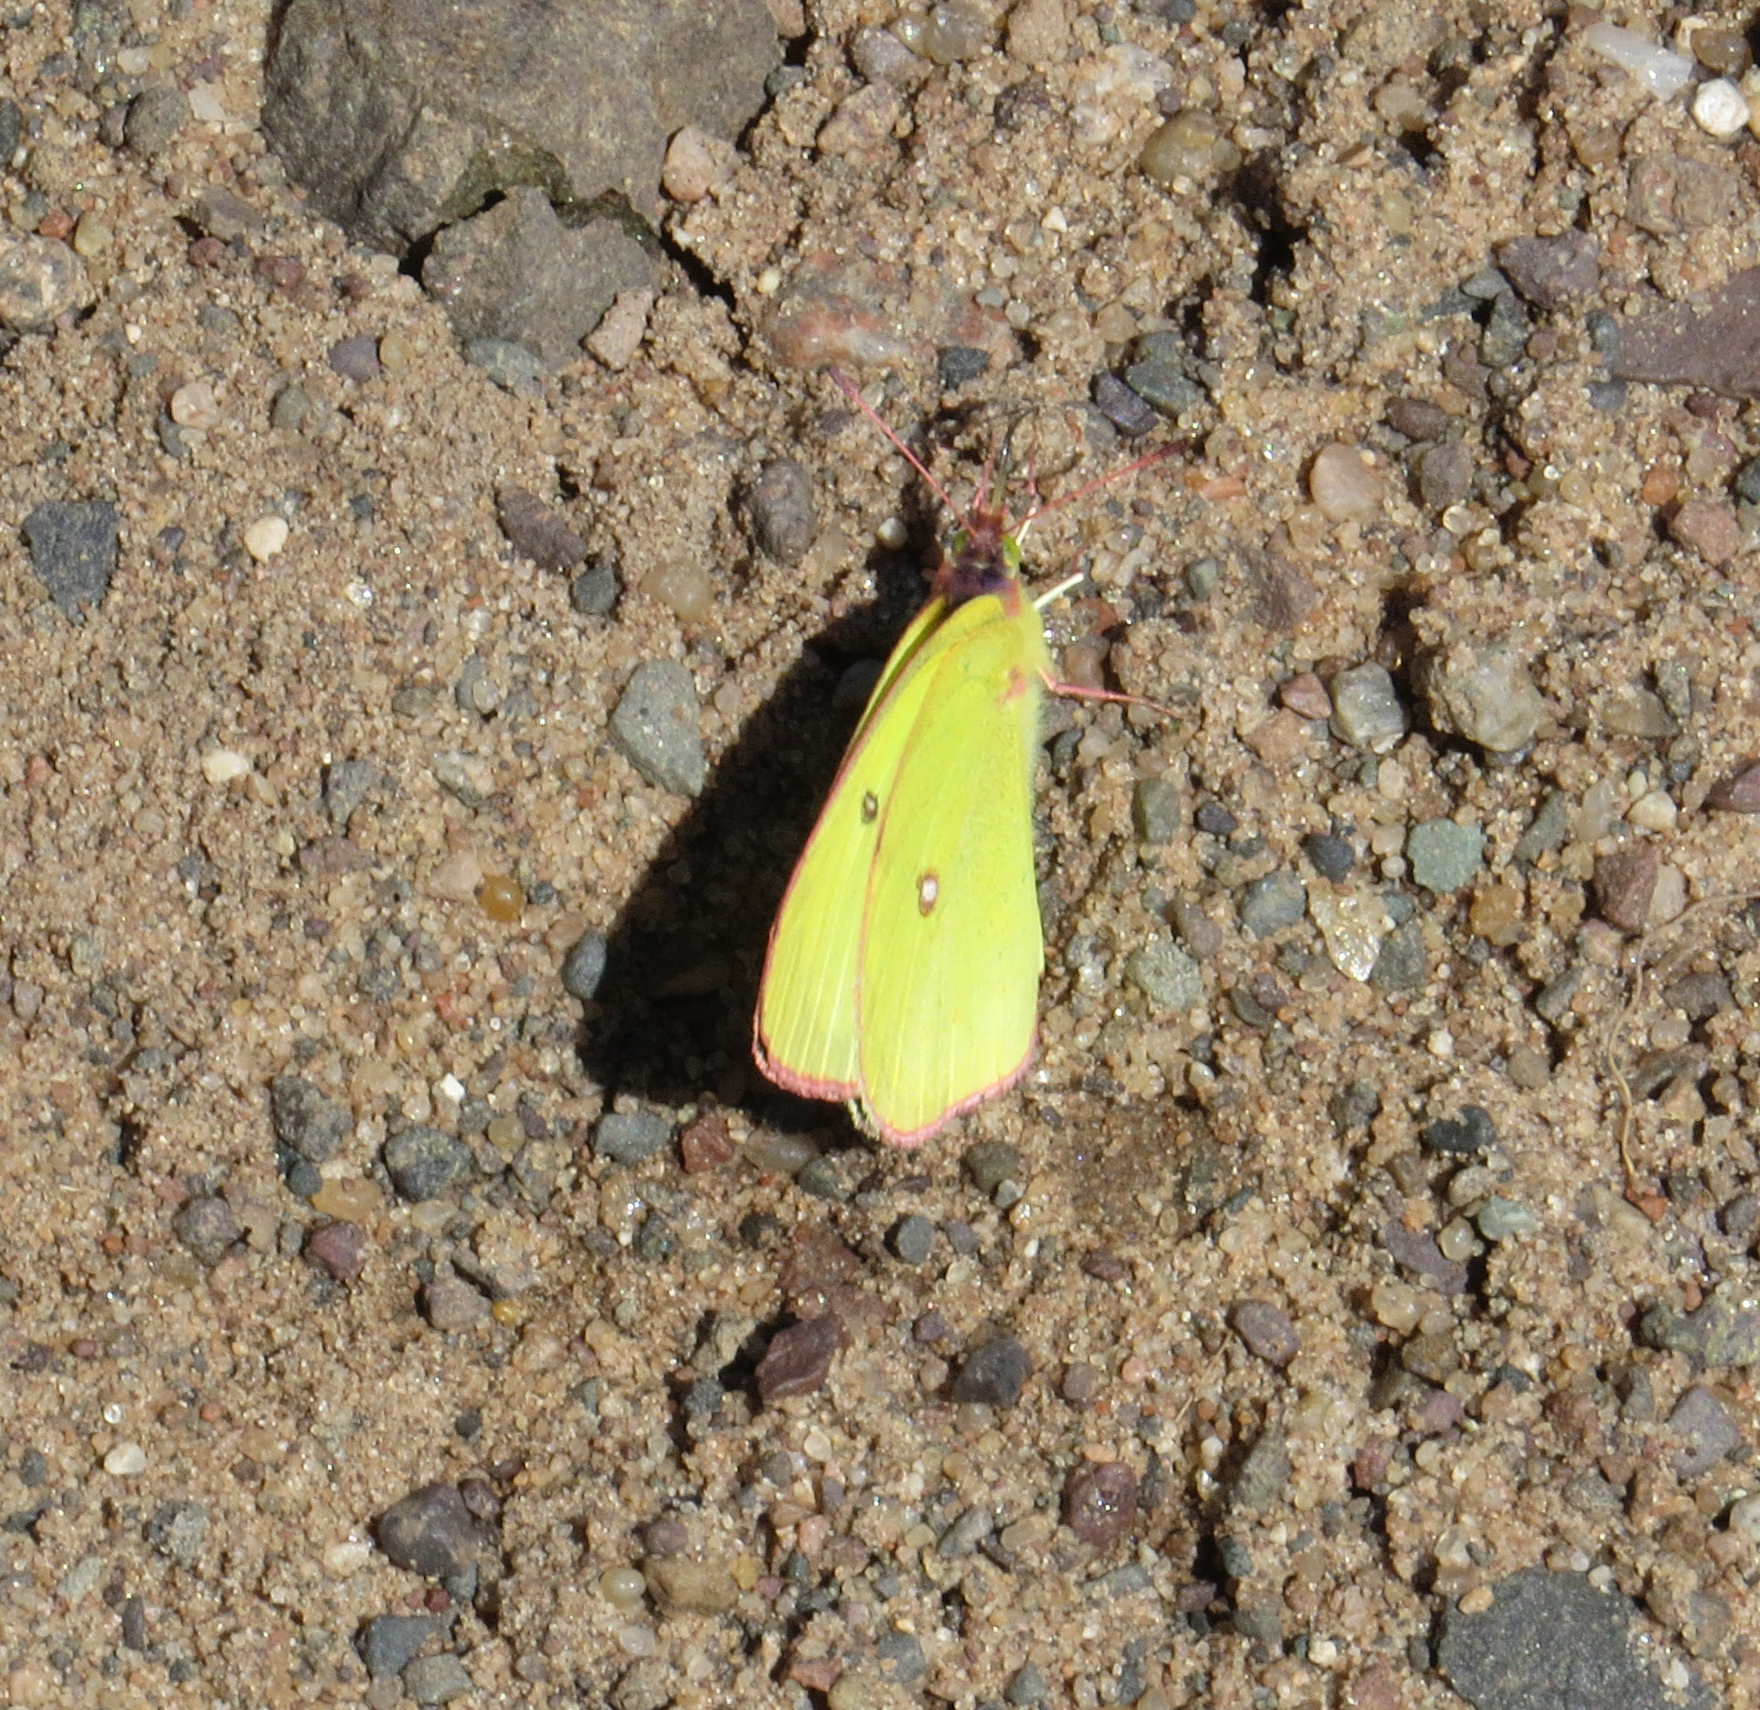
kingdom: Animalia
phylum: Arthropoda
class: Insecta
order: Lepidoptera
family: Pieridae
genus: Colias
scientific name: Colias interior
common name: Pink-edged sulphur
